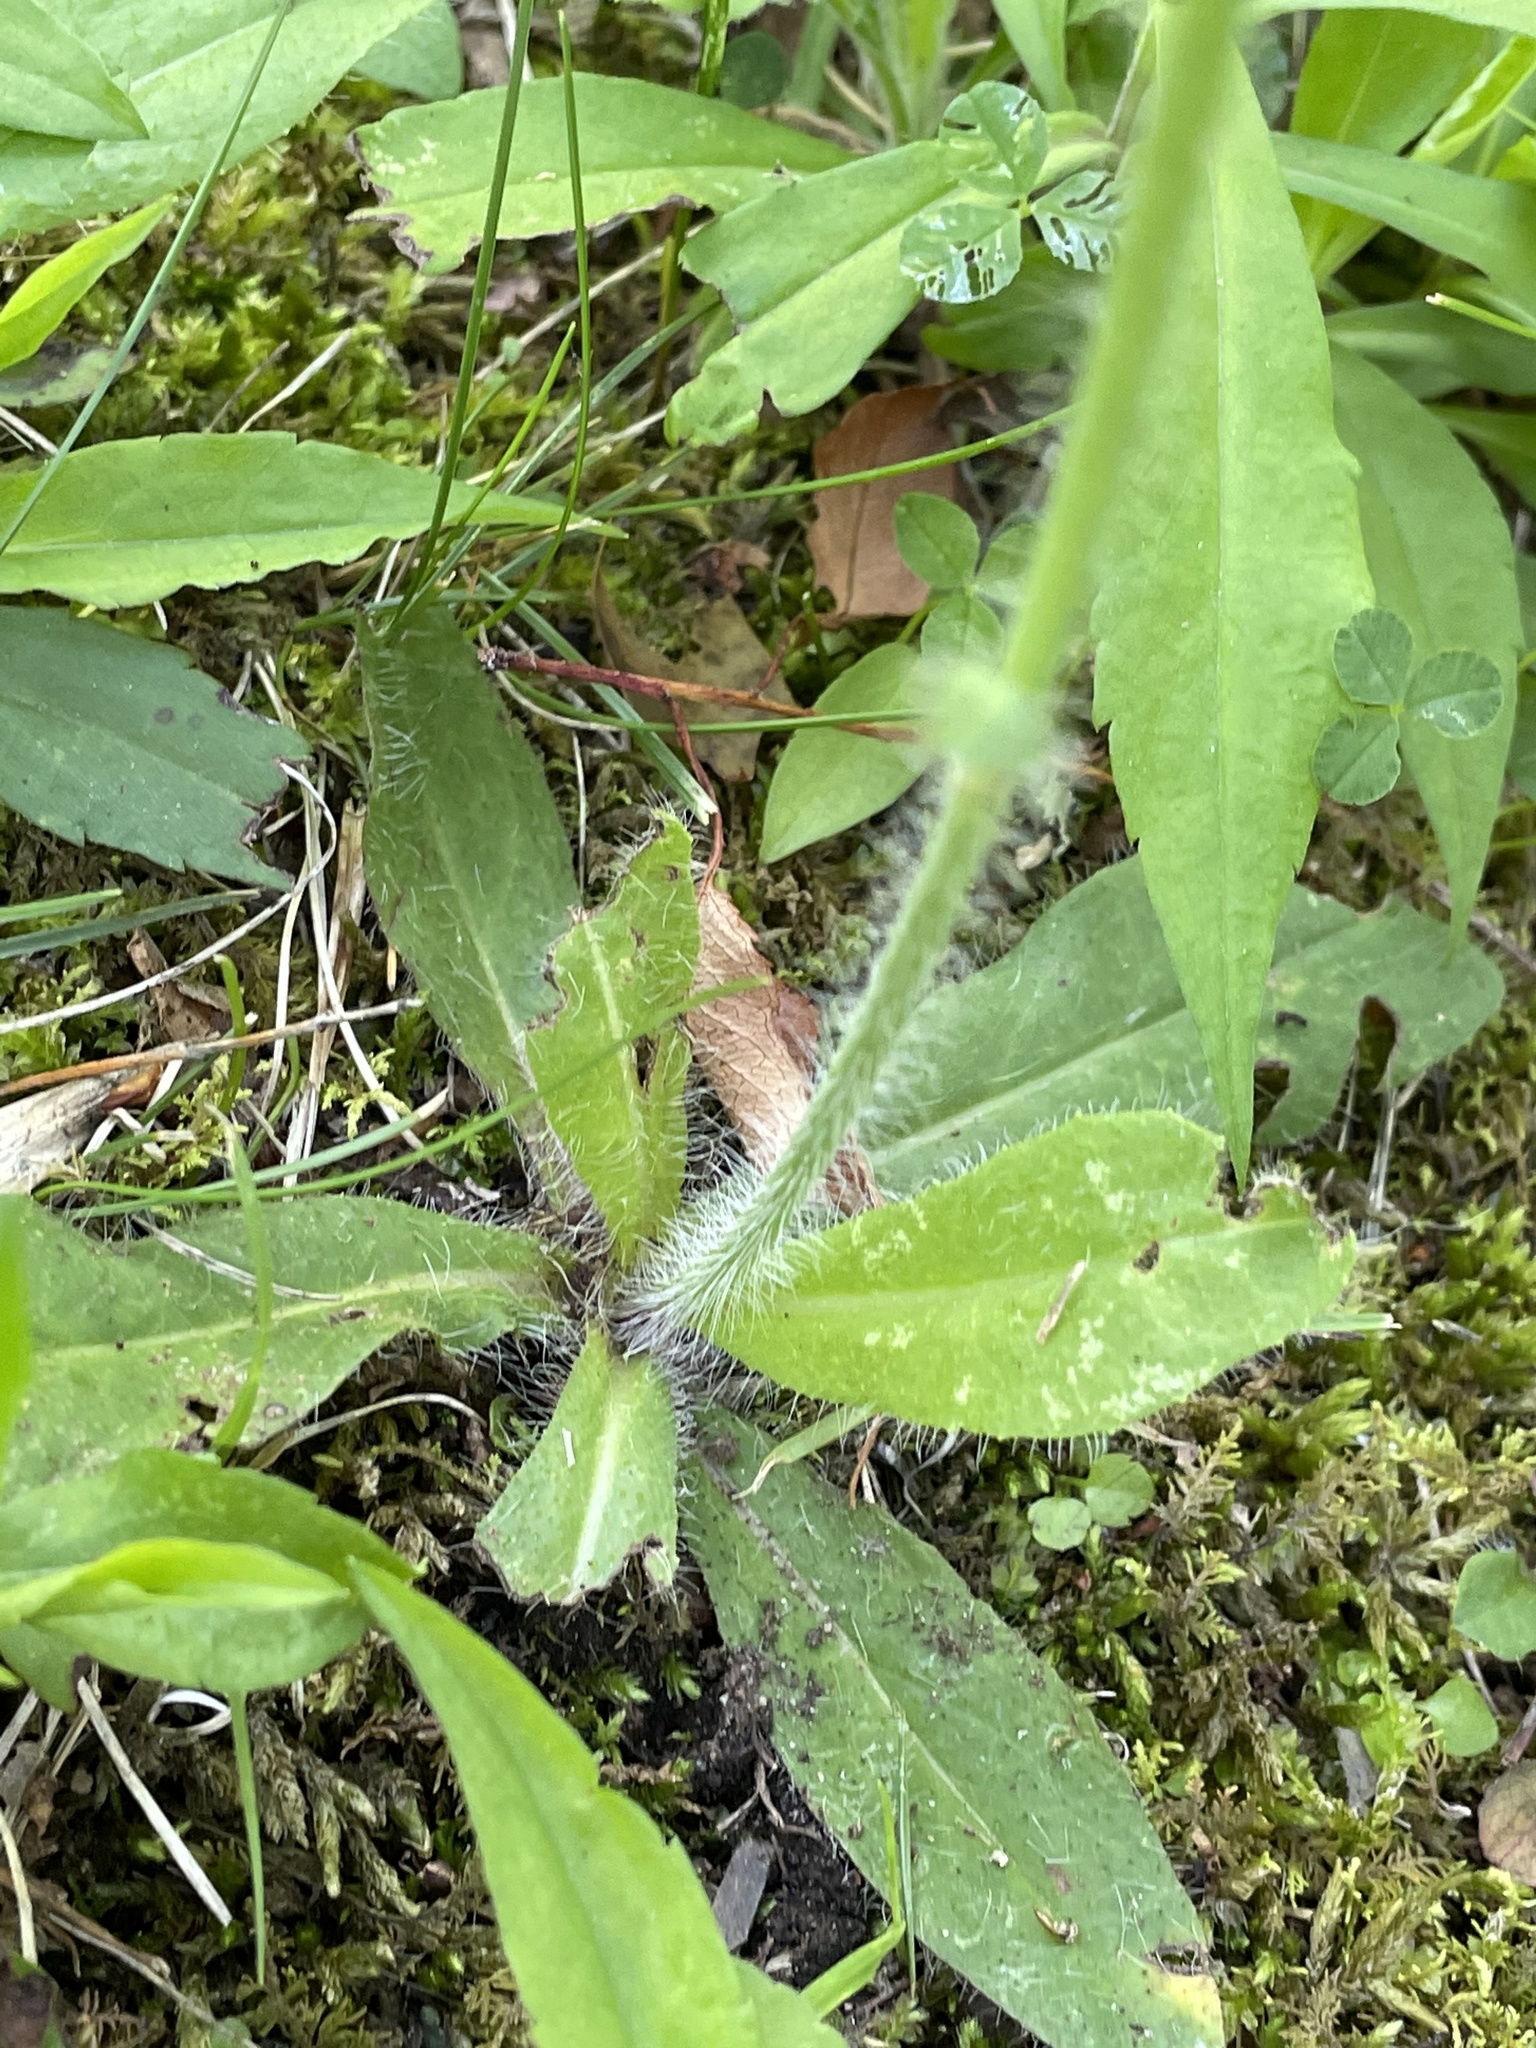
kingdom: Plantae
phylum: Tracheophyta
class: Magnoliopsida
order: Asterales
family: Asteraceae
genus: Pilosella
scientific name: Pilosella aurantiaca
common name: Fox-and-cubs
